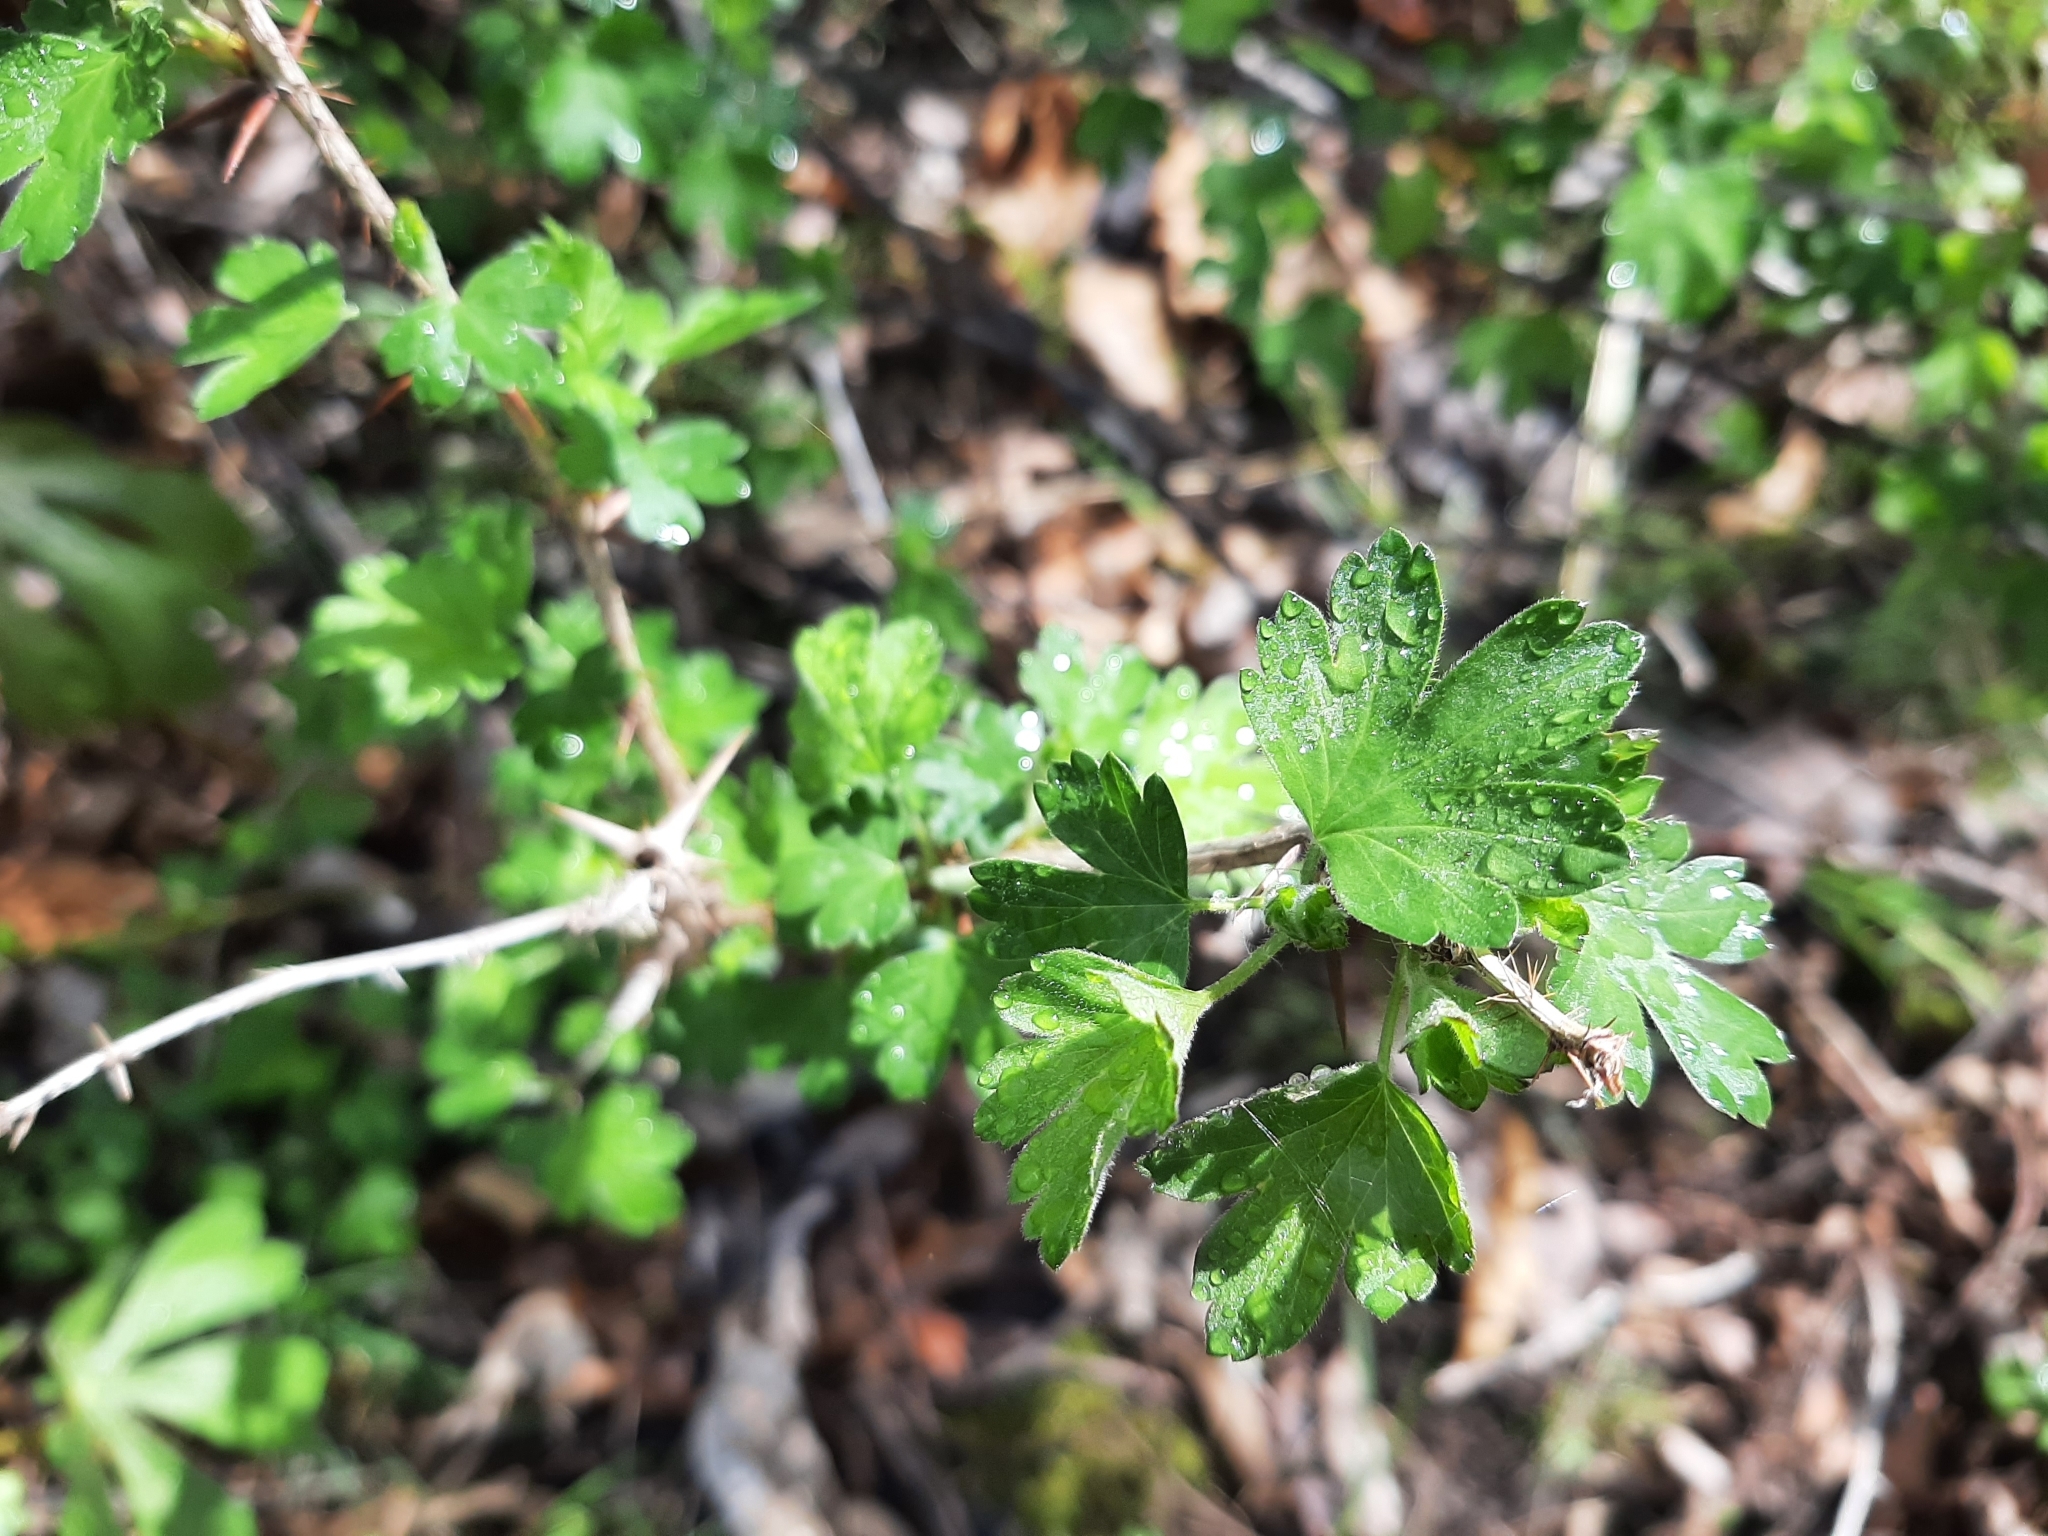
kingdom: Plantae
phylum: Tracheophyta
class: Magnoliopsida
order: Saxifragales
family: Grossulariaceae
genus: Ribes
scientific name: Ribes missouriense
